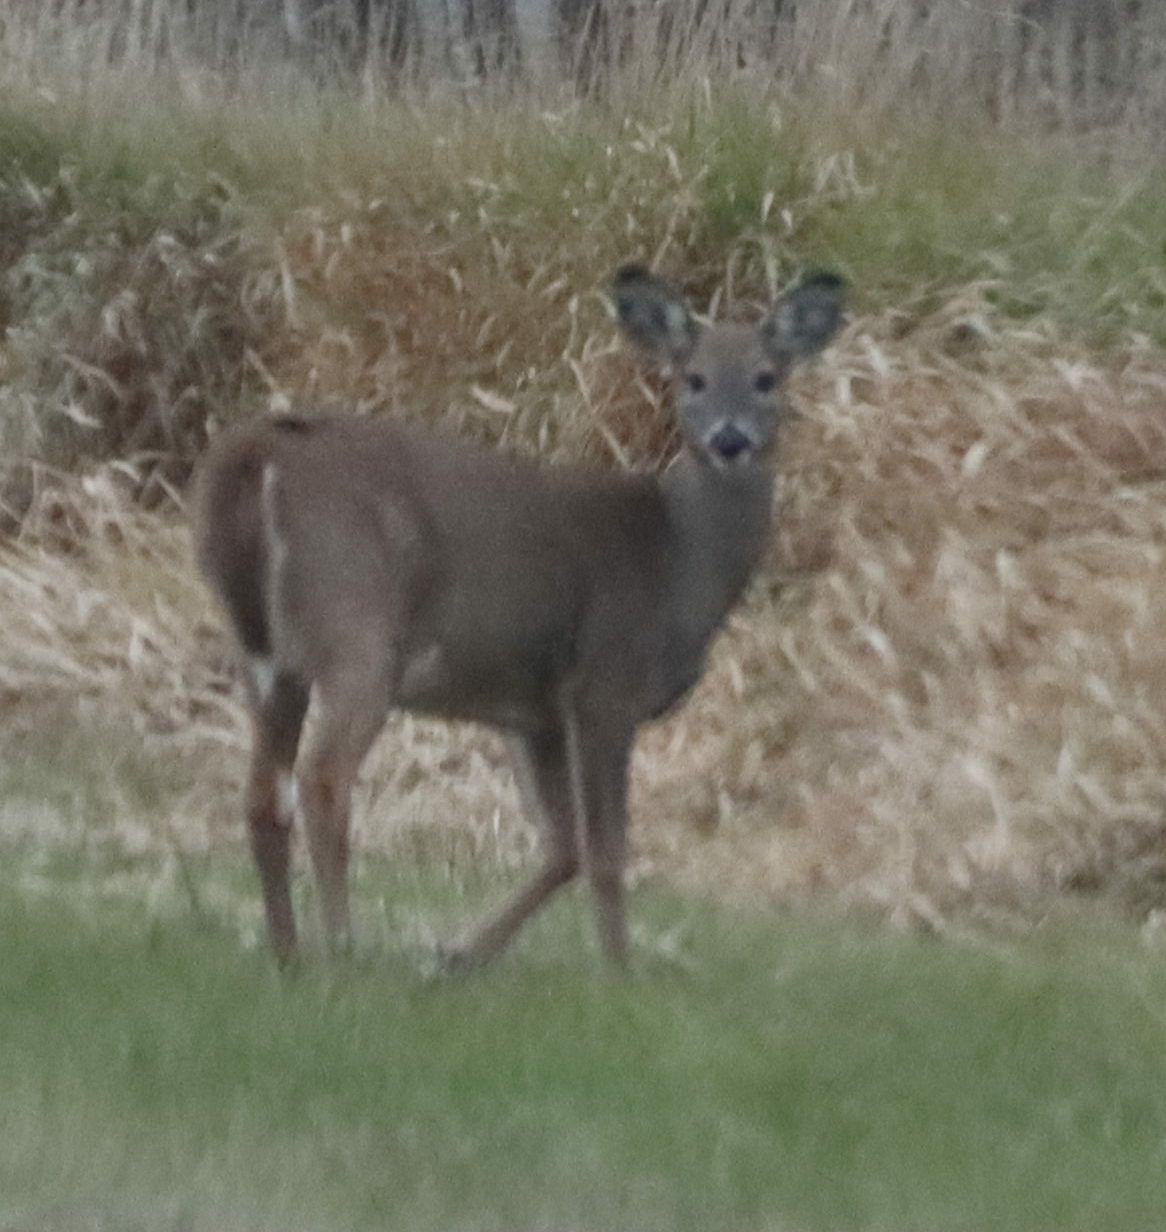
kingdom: Animalia
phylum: Chordata
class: Mammalia
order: Artiodactyla
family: Cervidae
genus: Odocoileus
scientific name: Odocoileus virginianus
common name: White-tailed deer
